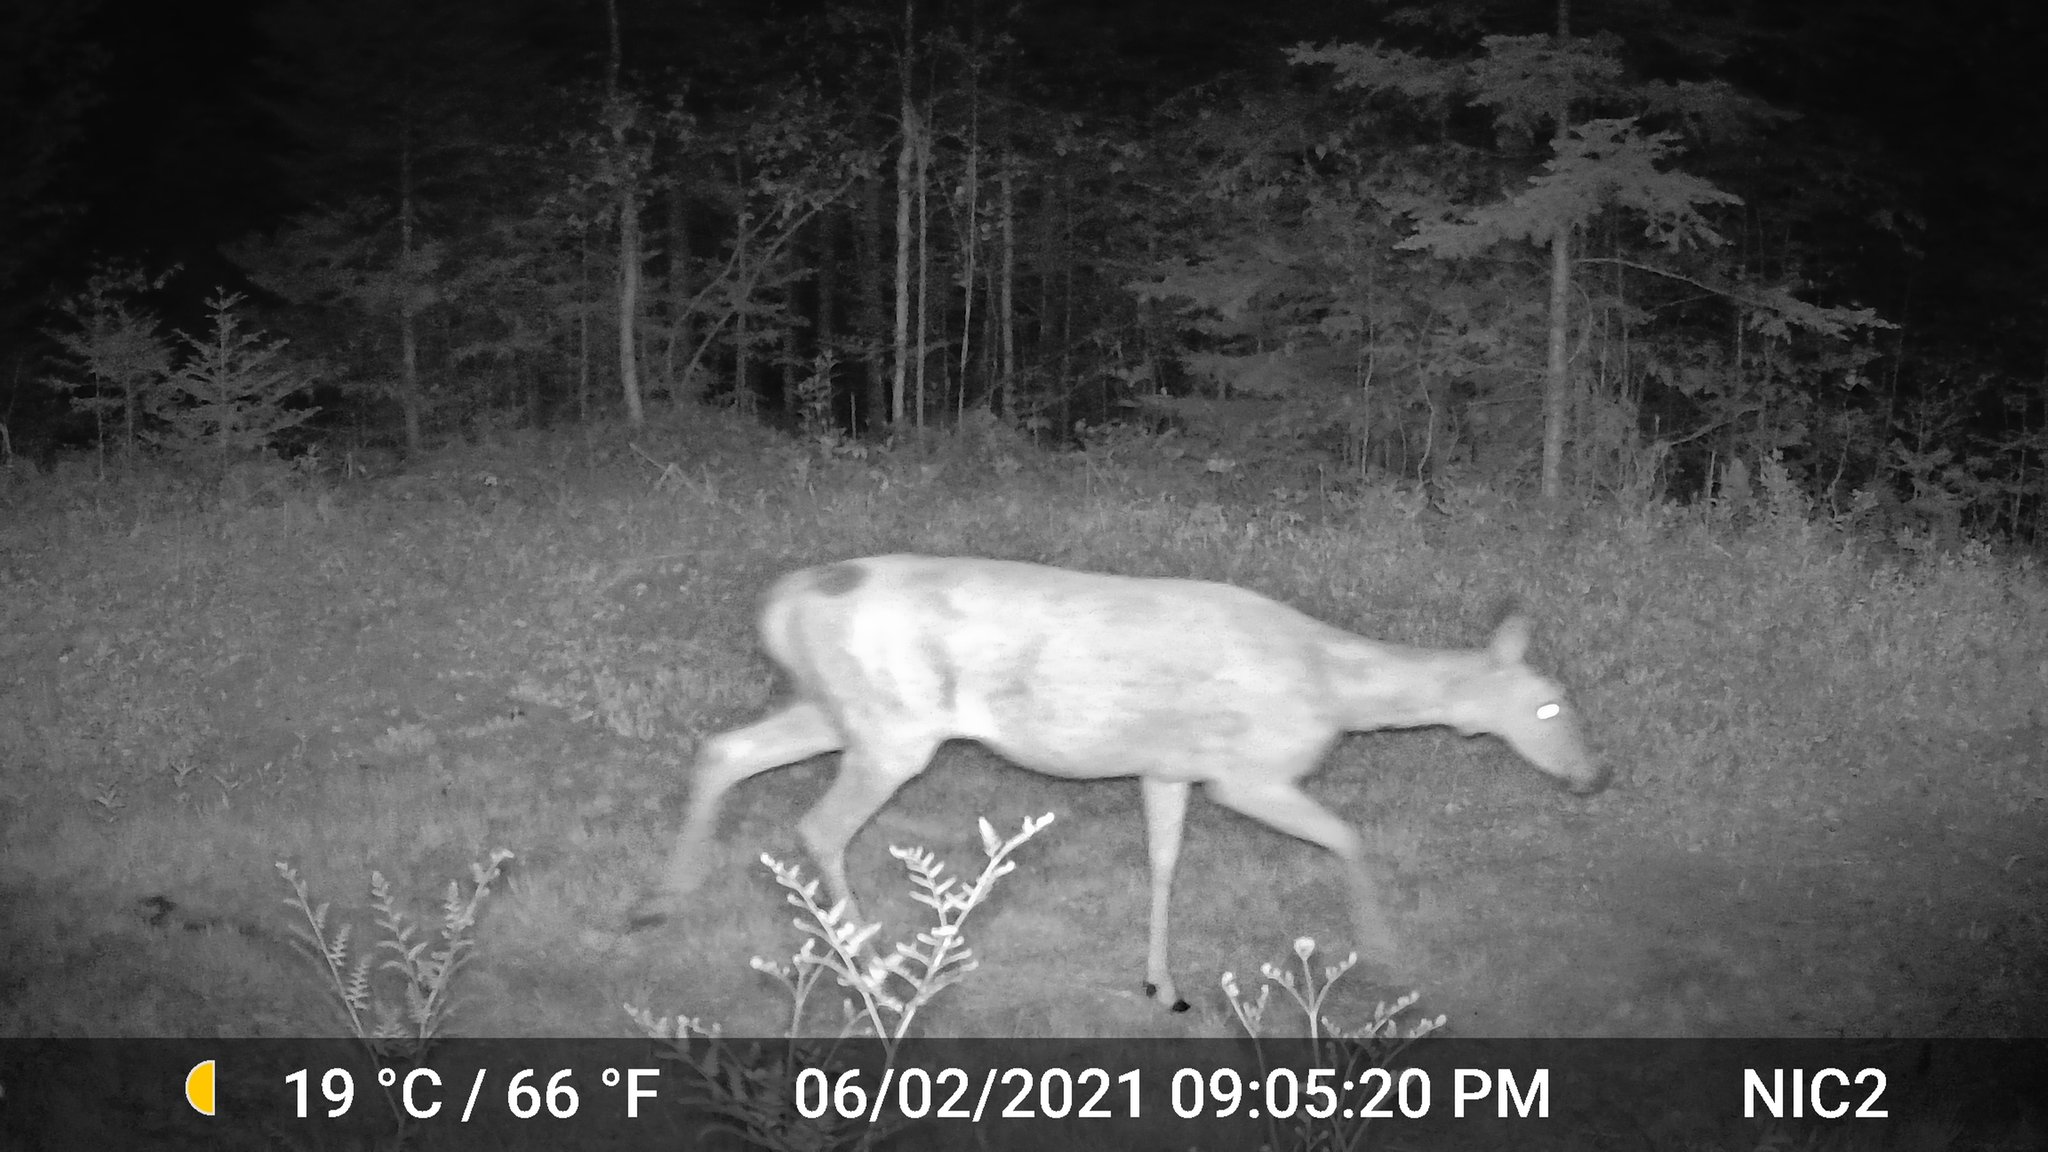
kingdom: Animalia
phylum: Chordata
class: Mammalia
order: Artiodactyla
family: Cervidae
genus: Odocoileus
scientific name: Odocoileus virginianus
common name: White-tailed deer
